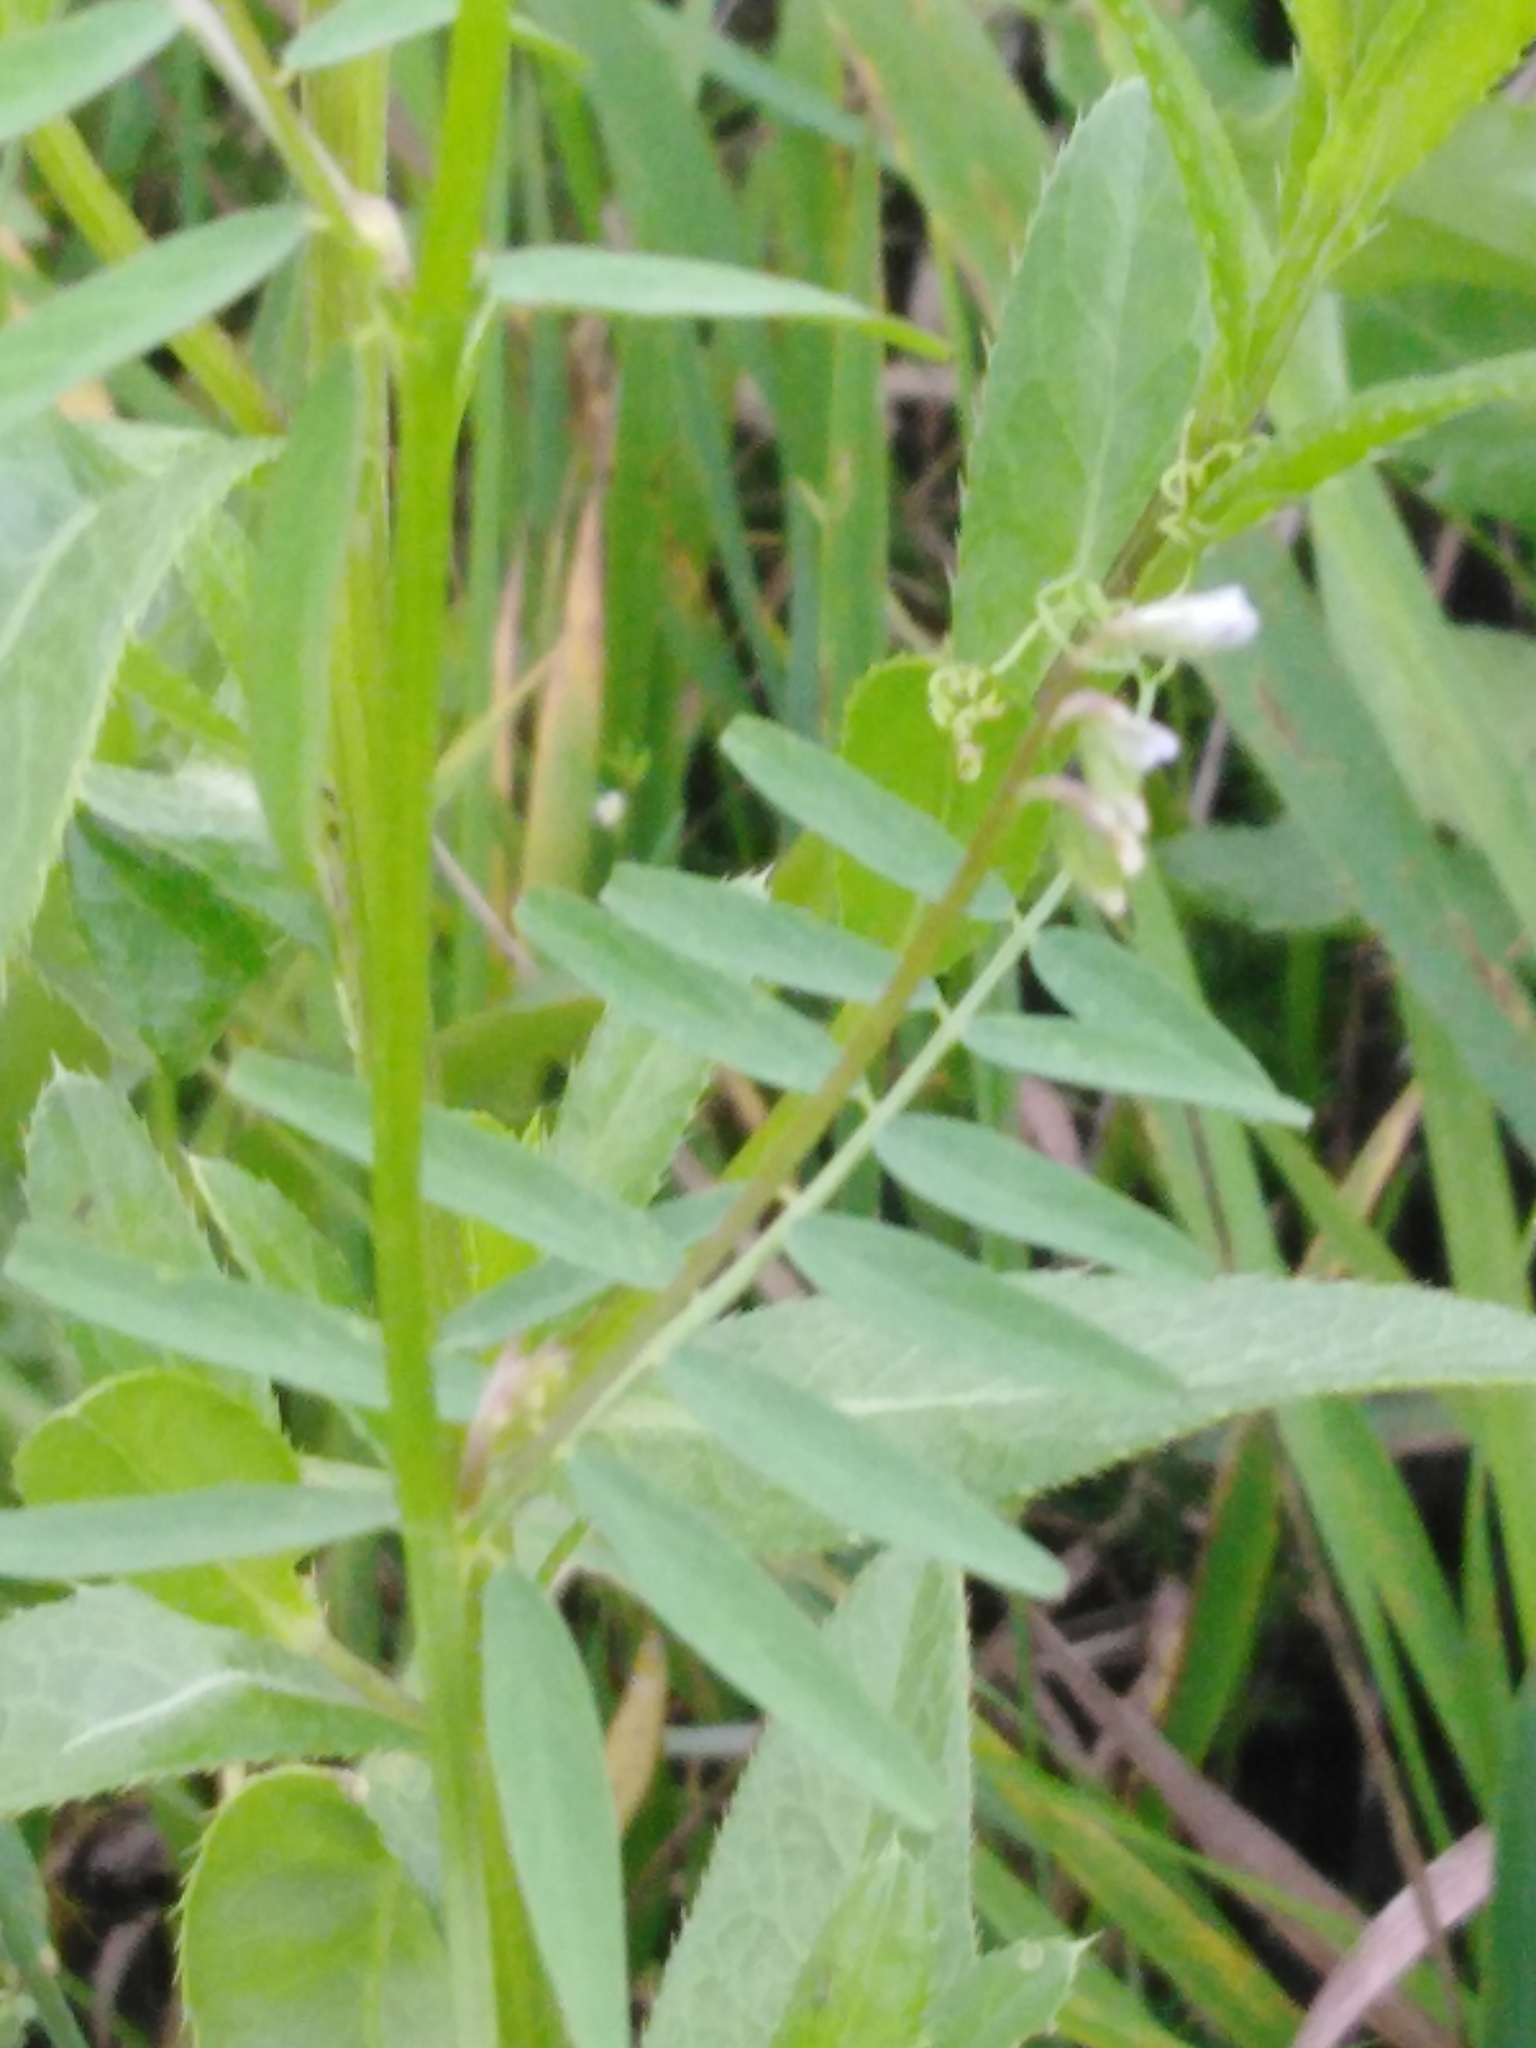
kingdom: Plantae
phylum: Tracheophyta
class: Magnoliopsida
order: Fabales
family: Fabaceae
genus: Vicia
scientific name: Vicia hirsuta
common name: Tiny vetch
